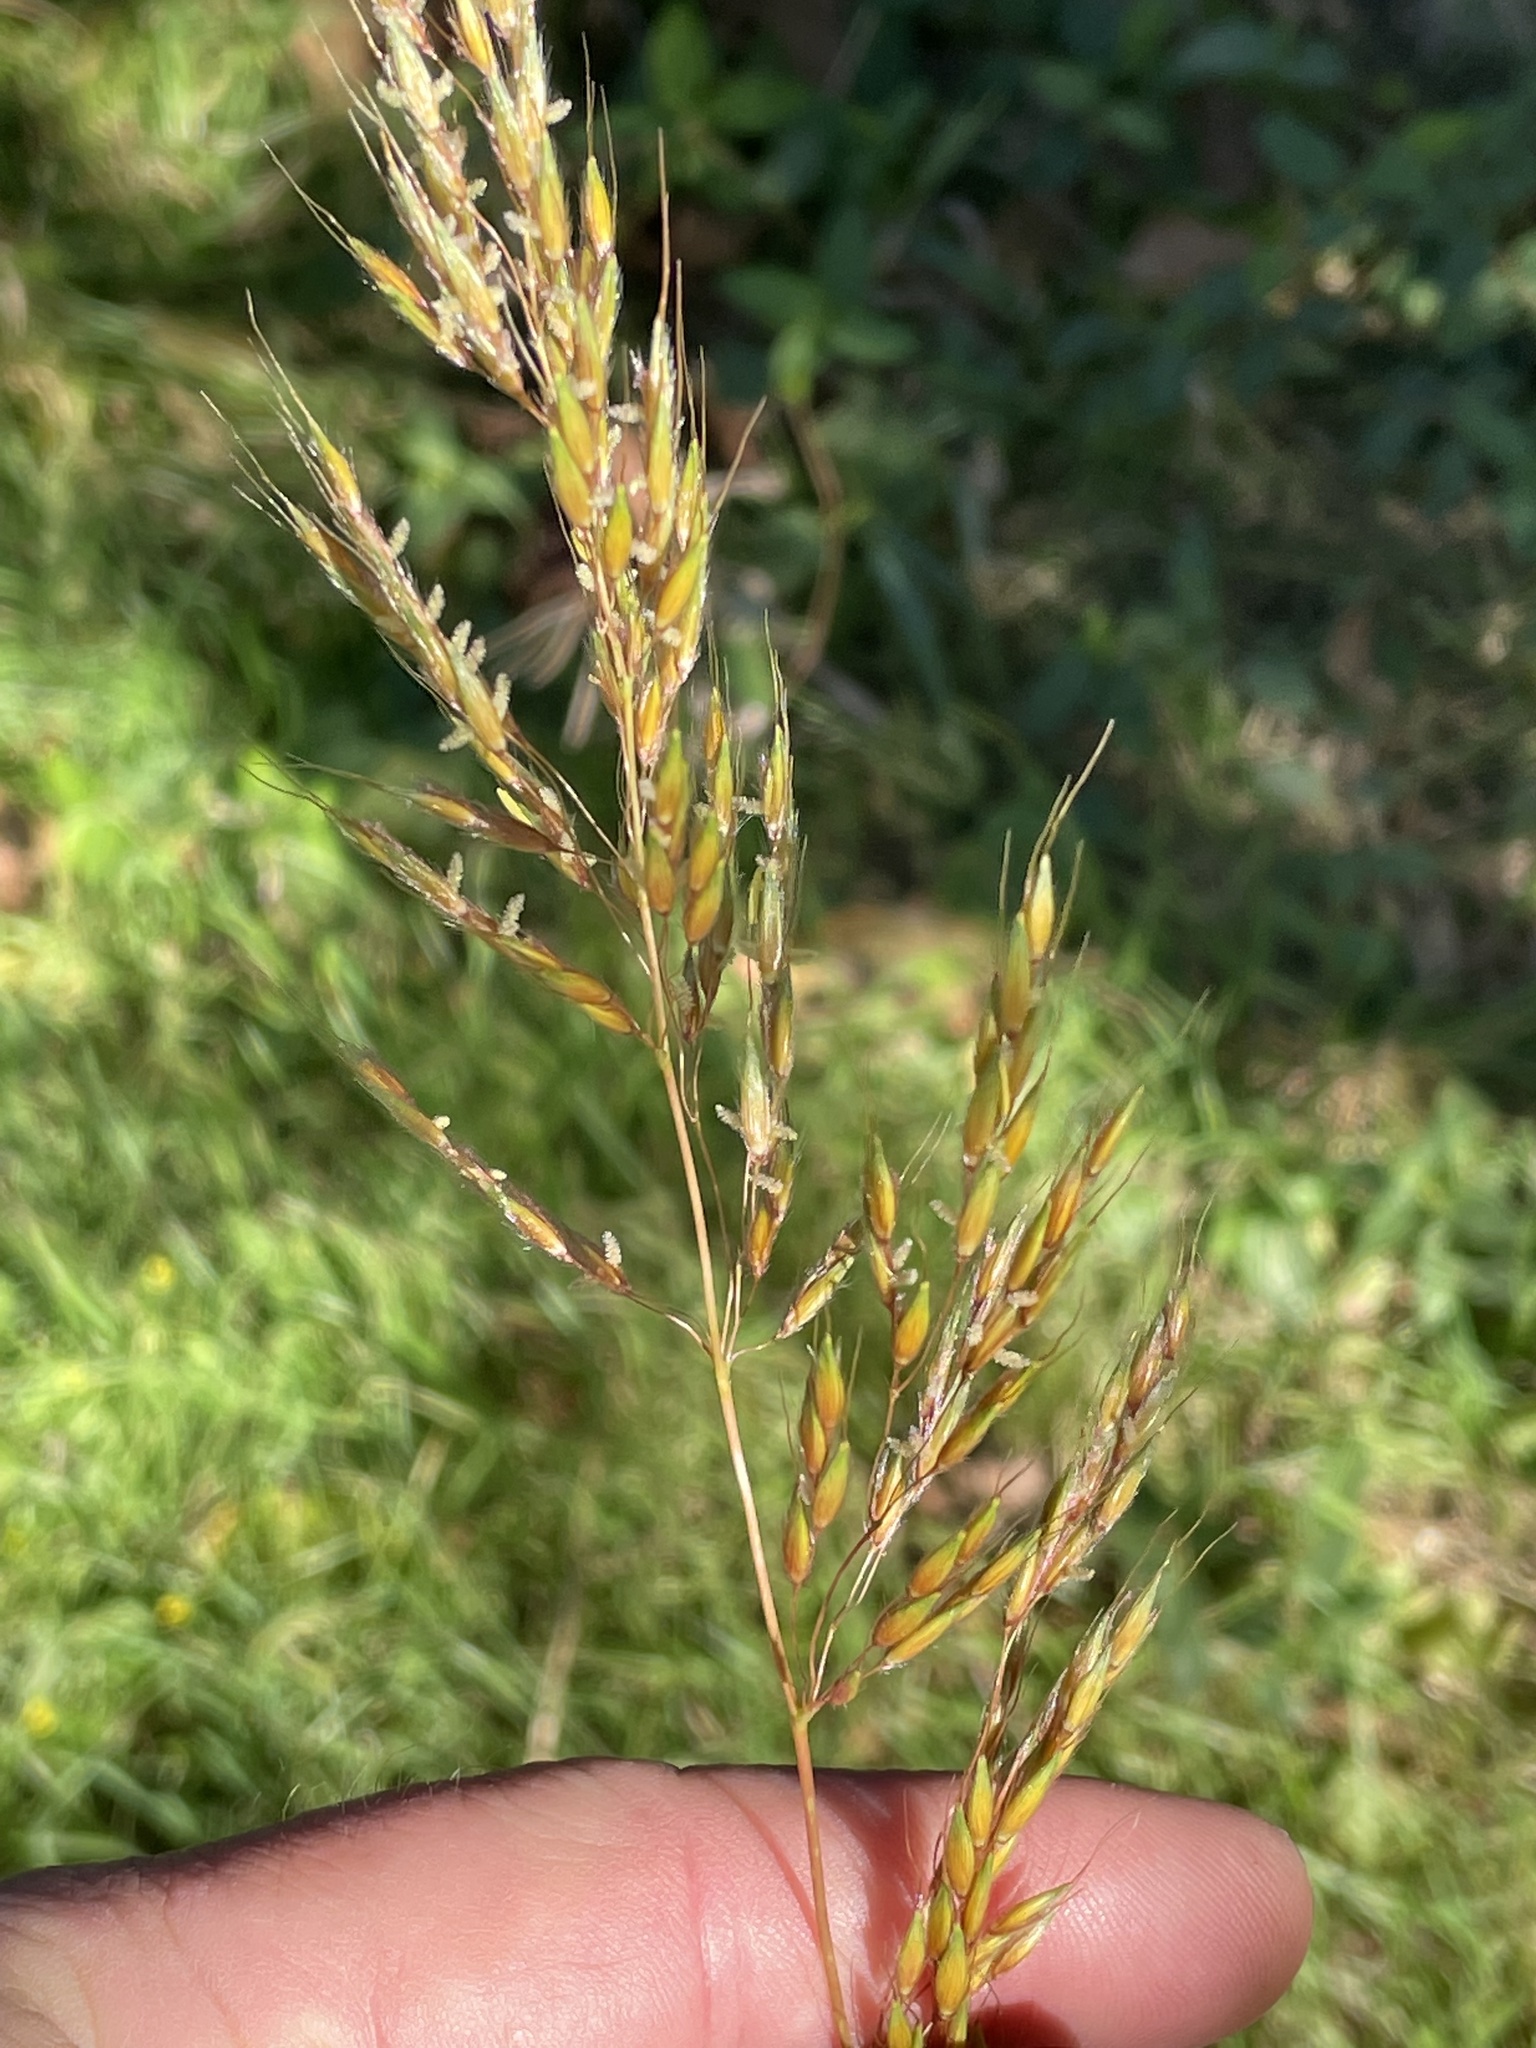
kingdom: Plantae
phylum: Tracheophyta
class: Liliopsida
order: Poales
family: Poaceae
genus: Sorghastrum
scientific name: Sorghastrum nutans
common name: Indian grass
